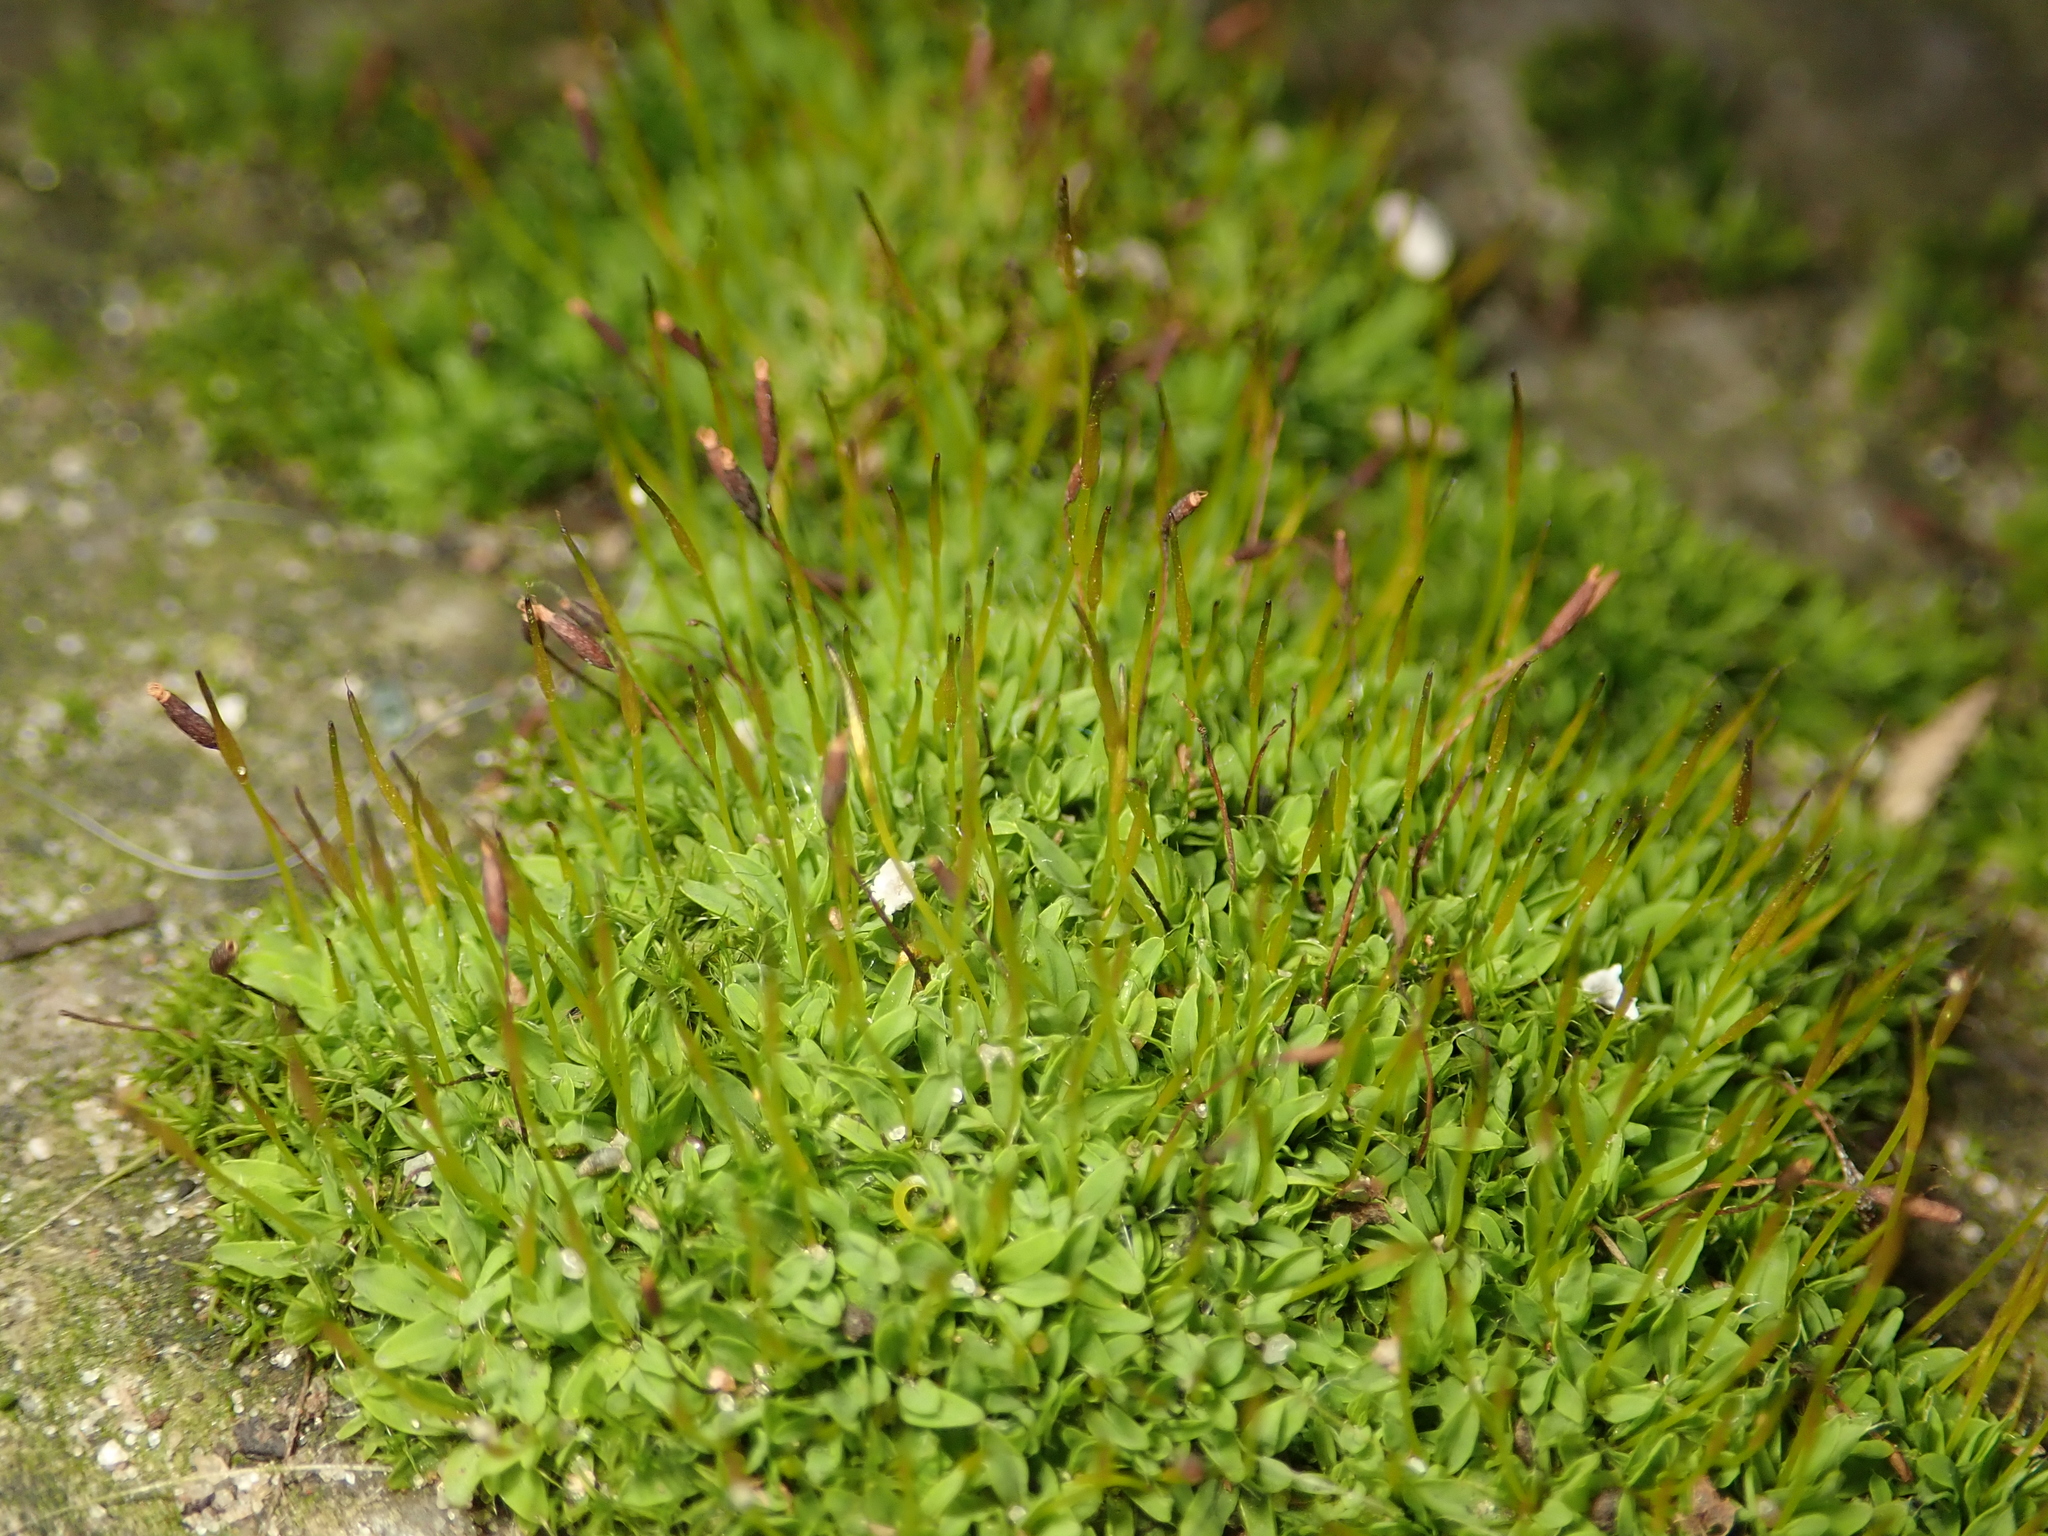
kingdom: Plantae
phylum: Bryophyta
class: Bryopsida
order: Pottiales
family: Pottiaceae
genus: Tortula
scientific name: Tortula muralis
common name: Wall screw-moss
